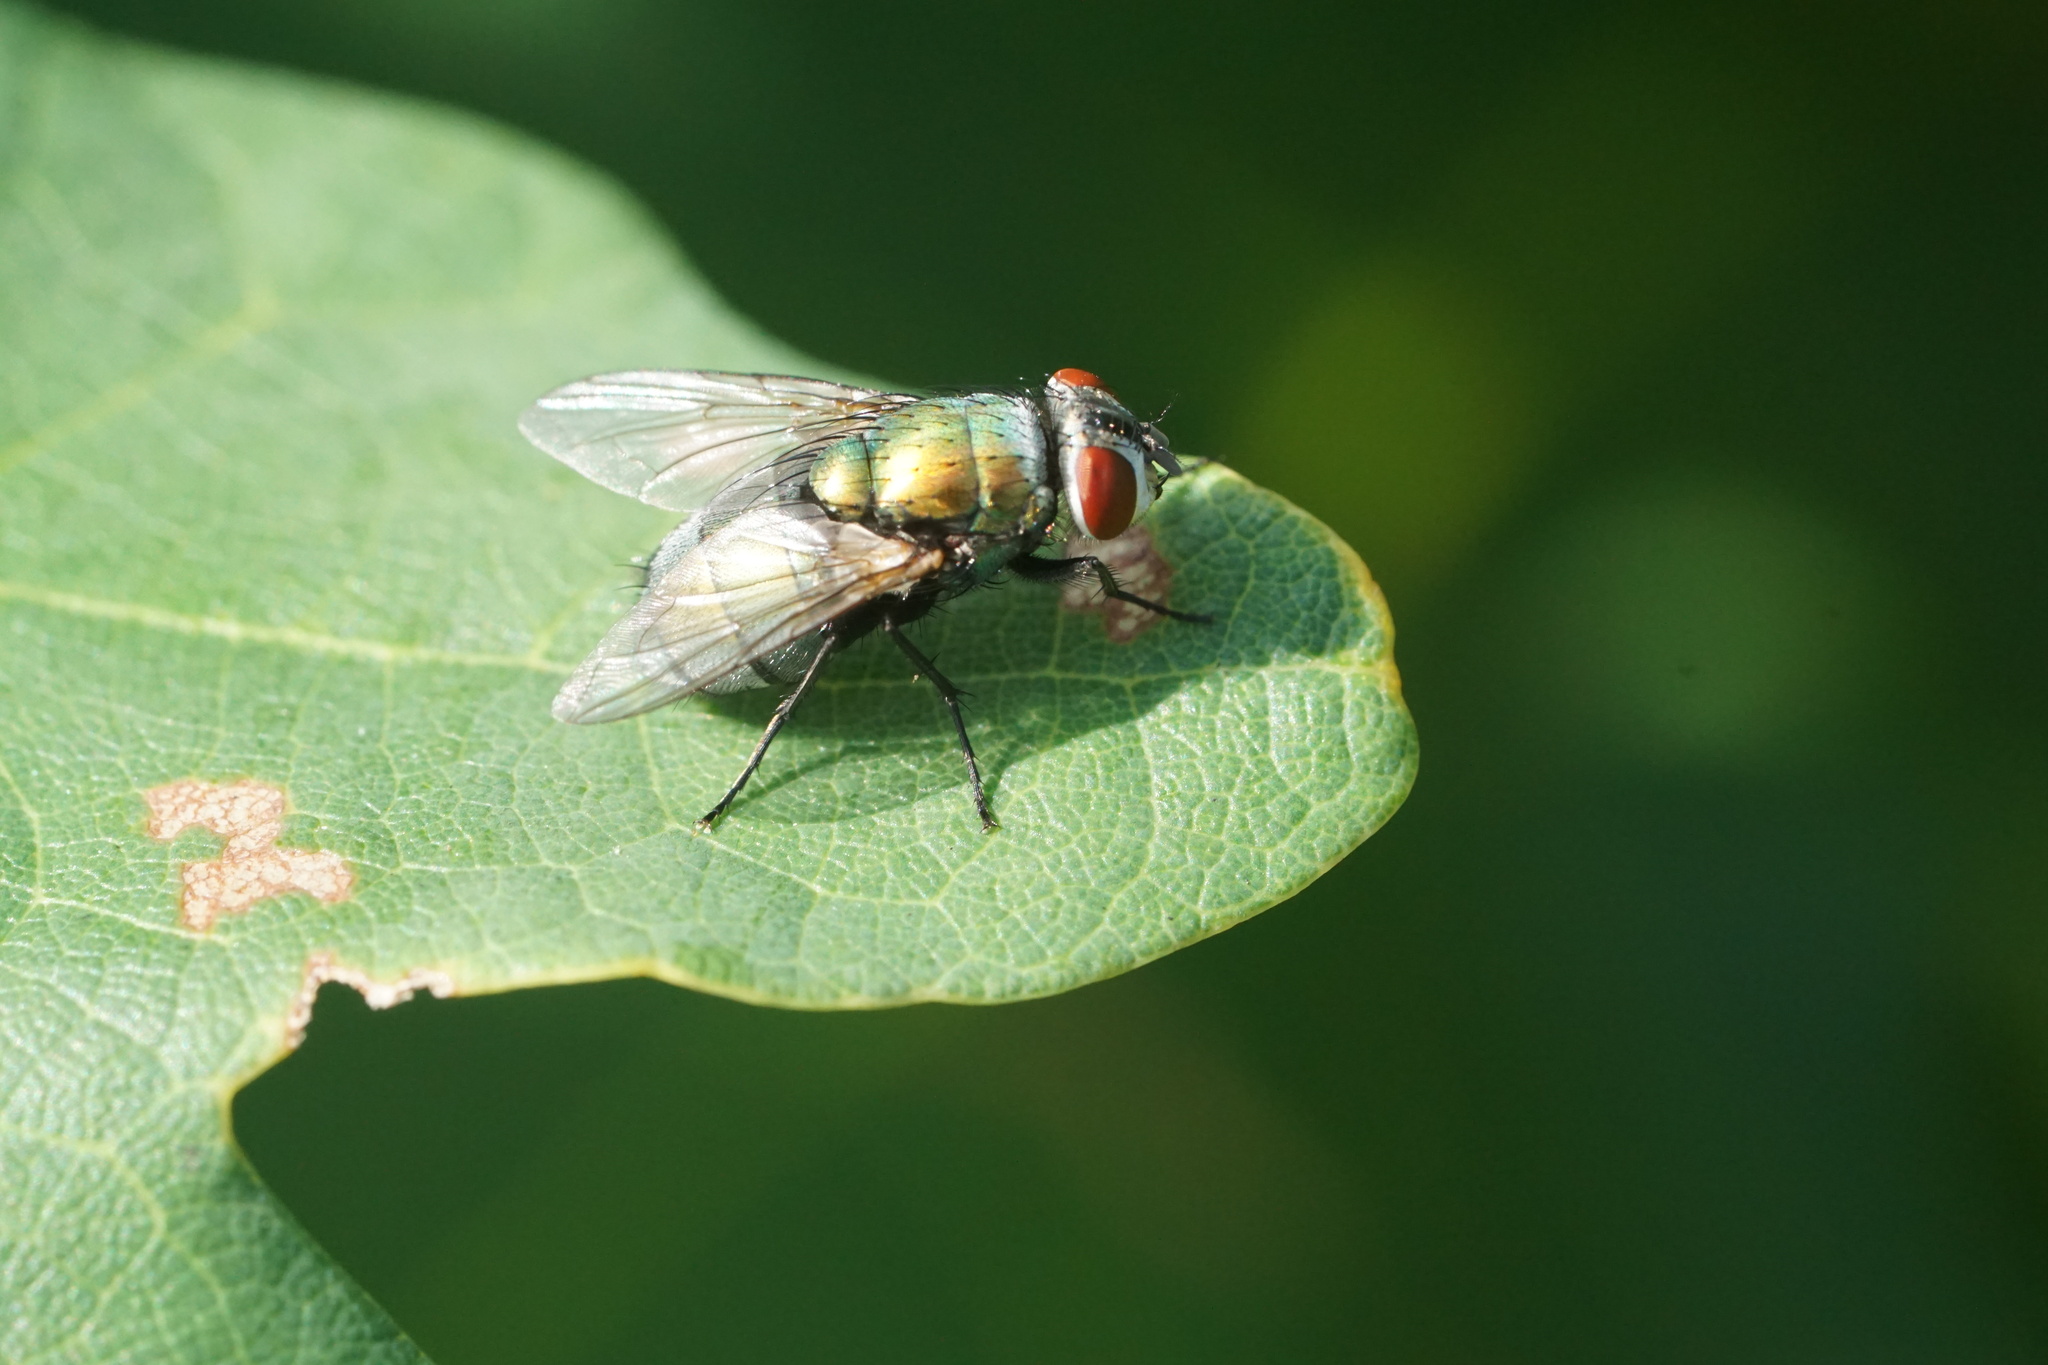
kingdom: Animalia
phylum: Arthropoda
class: Insecta
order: Diptera
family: Calliphoridae
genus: Lucilia
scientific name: Lucilia sericata
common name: Blow fly
